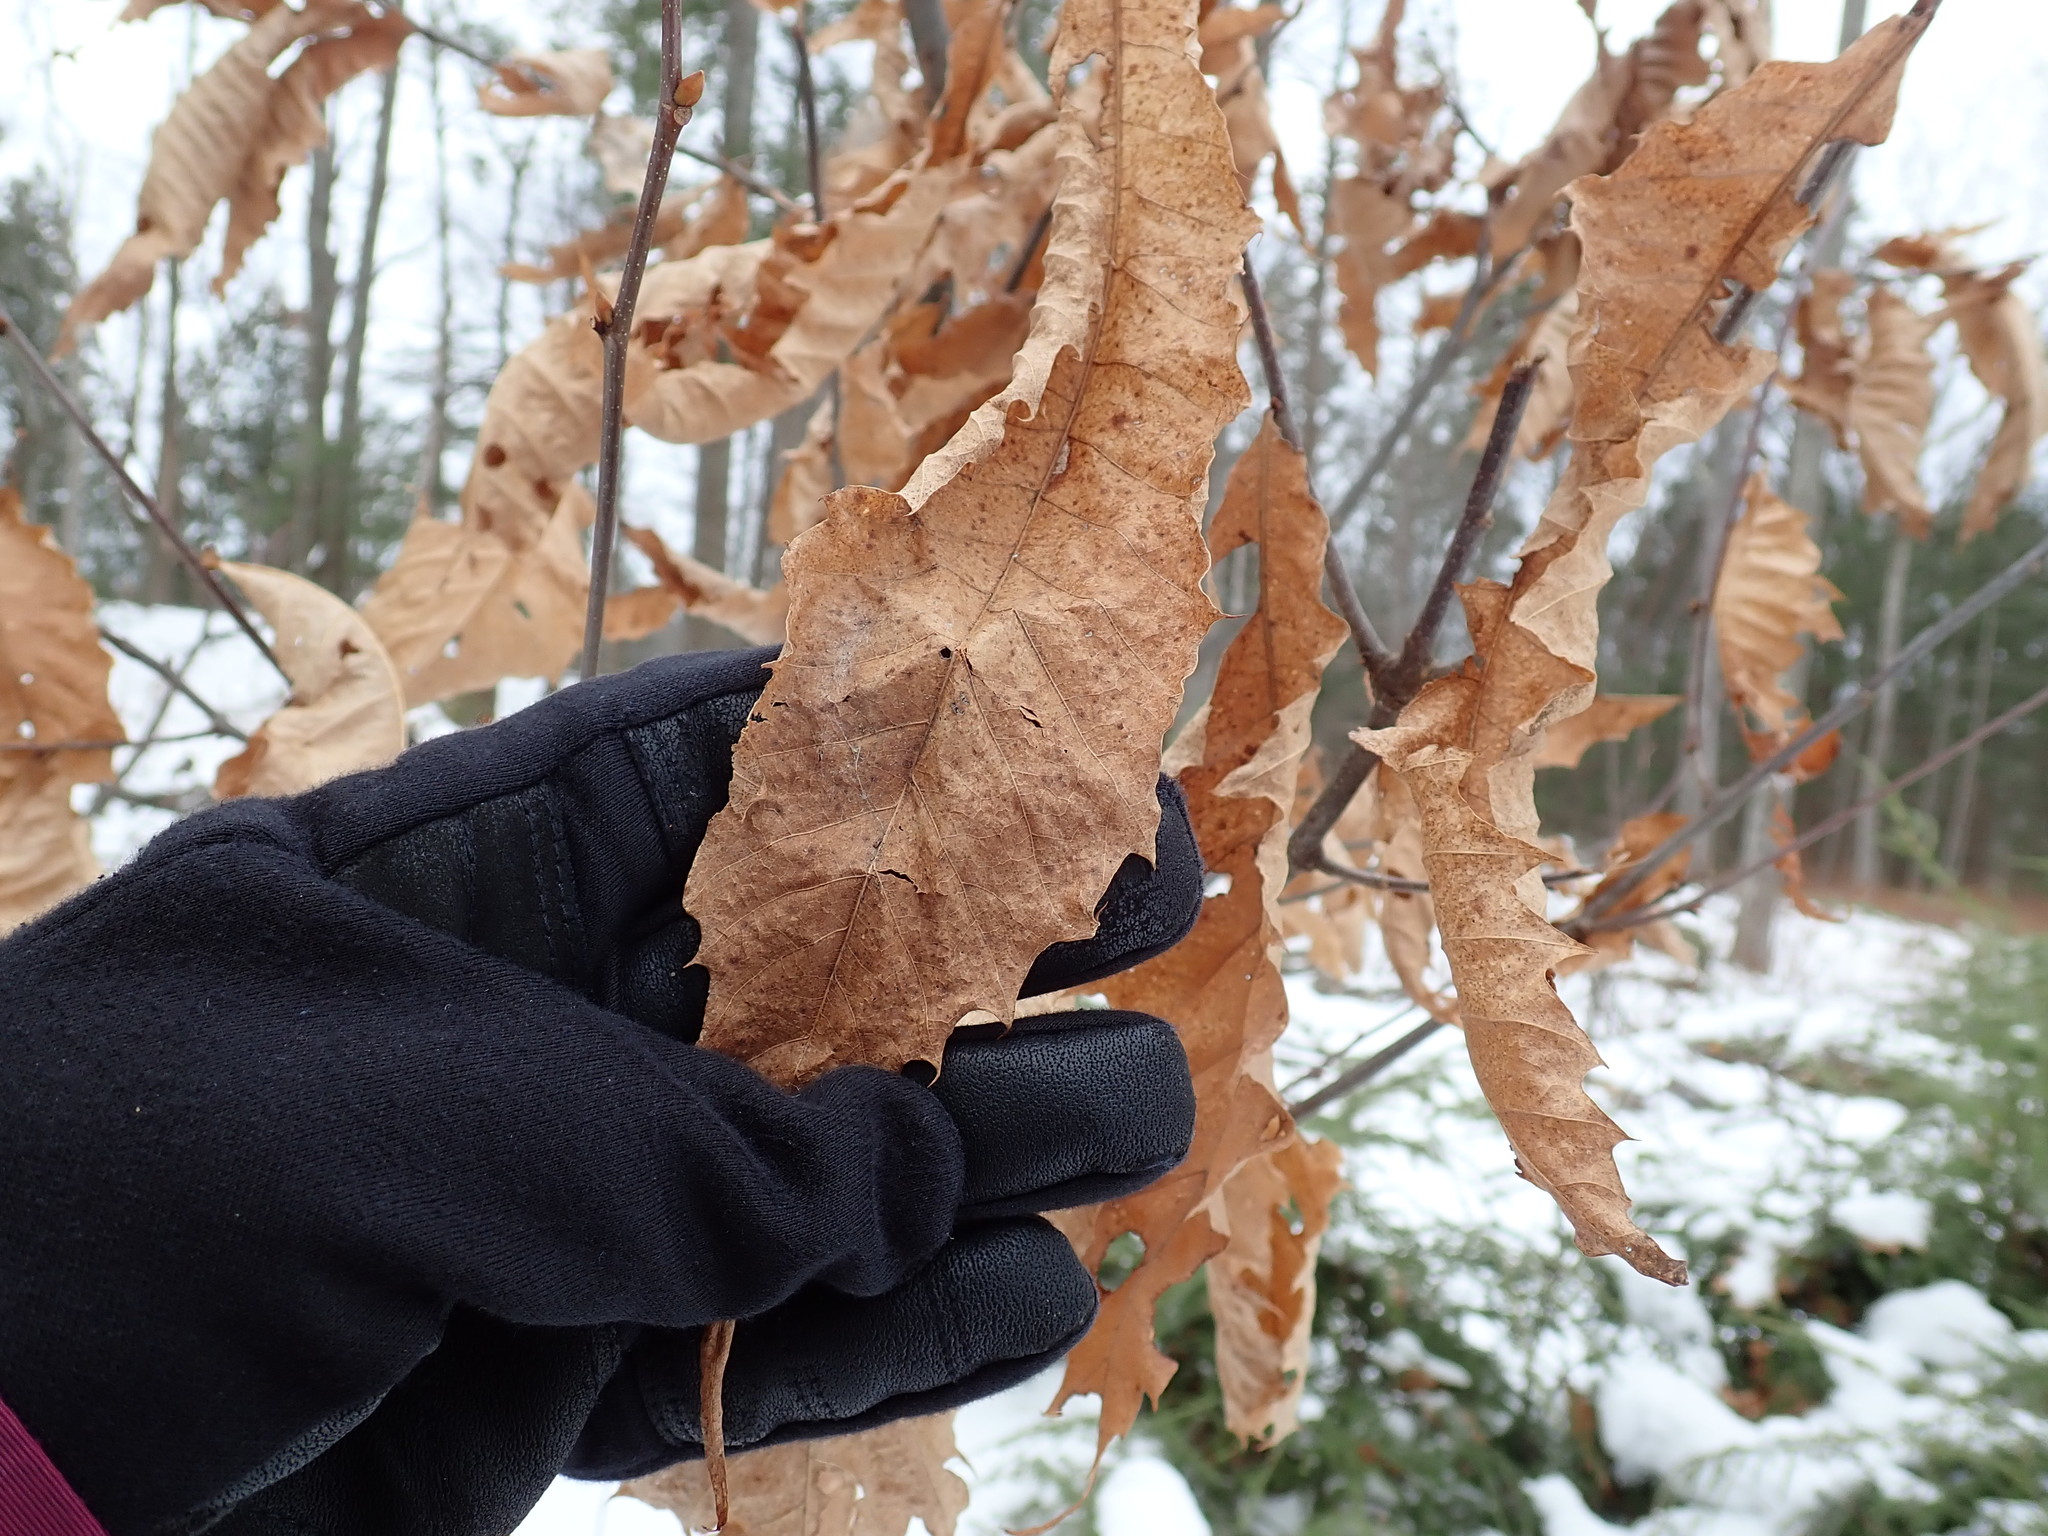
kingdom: Plantae
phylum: Tracheophyta
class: Magnoliopsida
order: Fagales
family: Fagaceae
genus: Castanea
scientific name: Castanea dentata
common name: American chestnut
